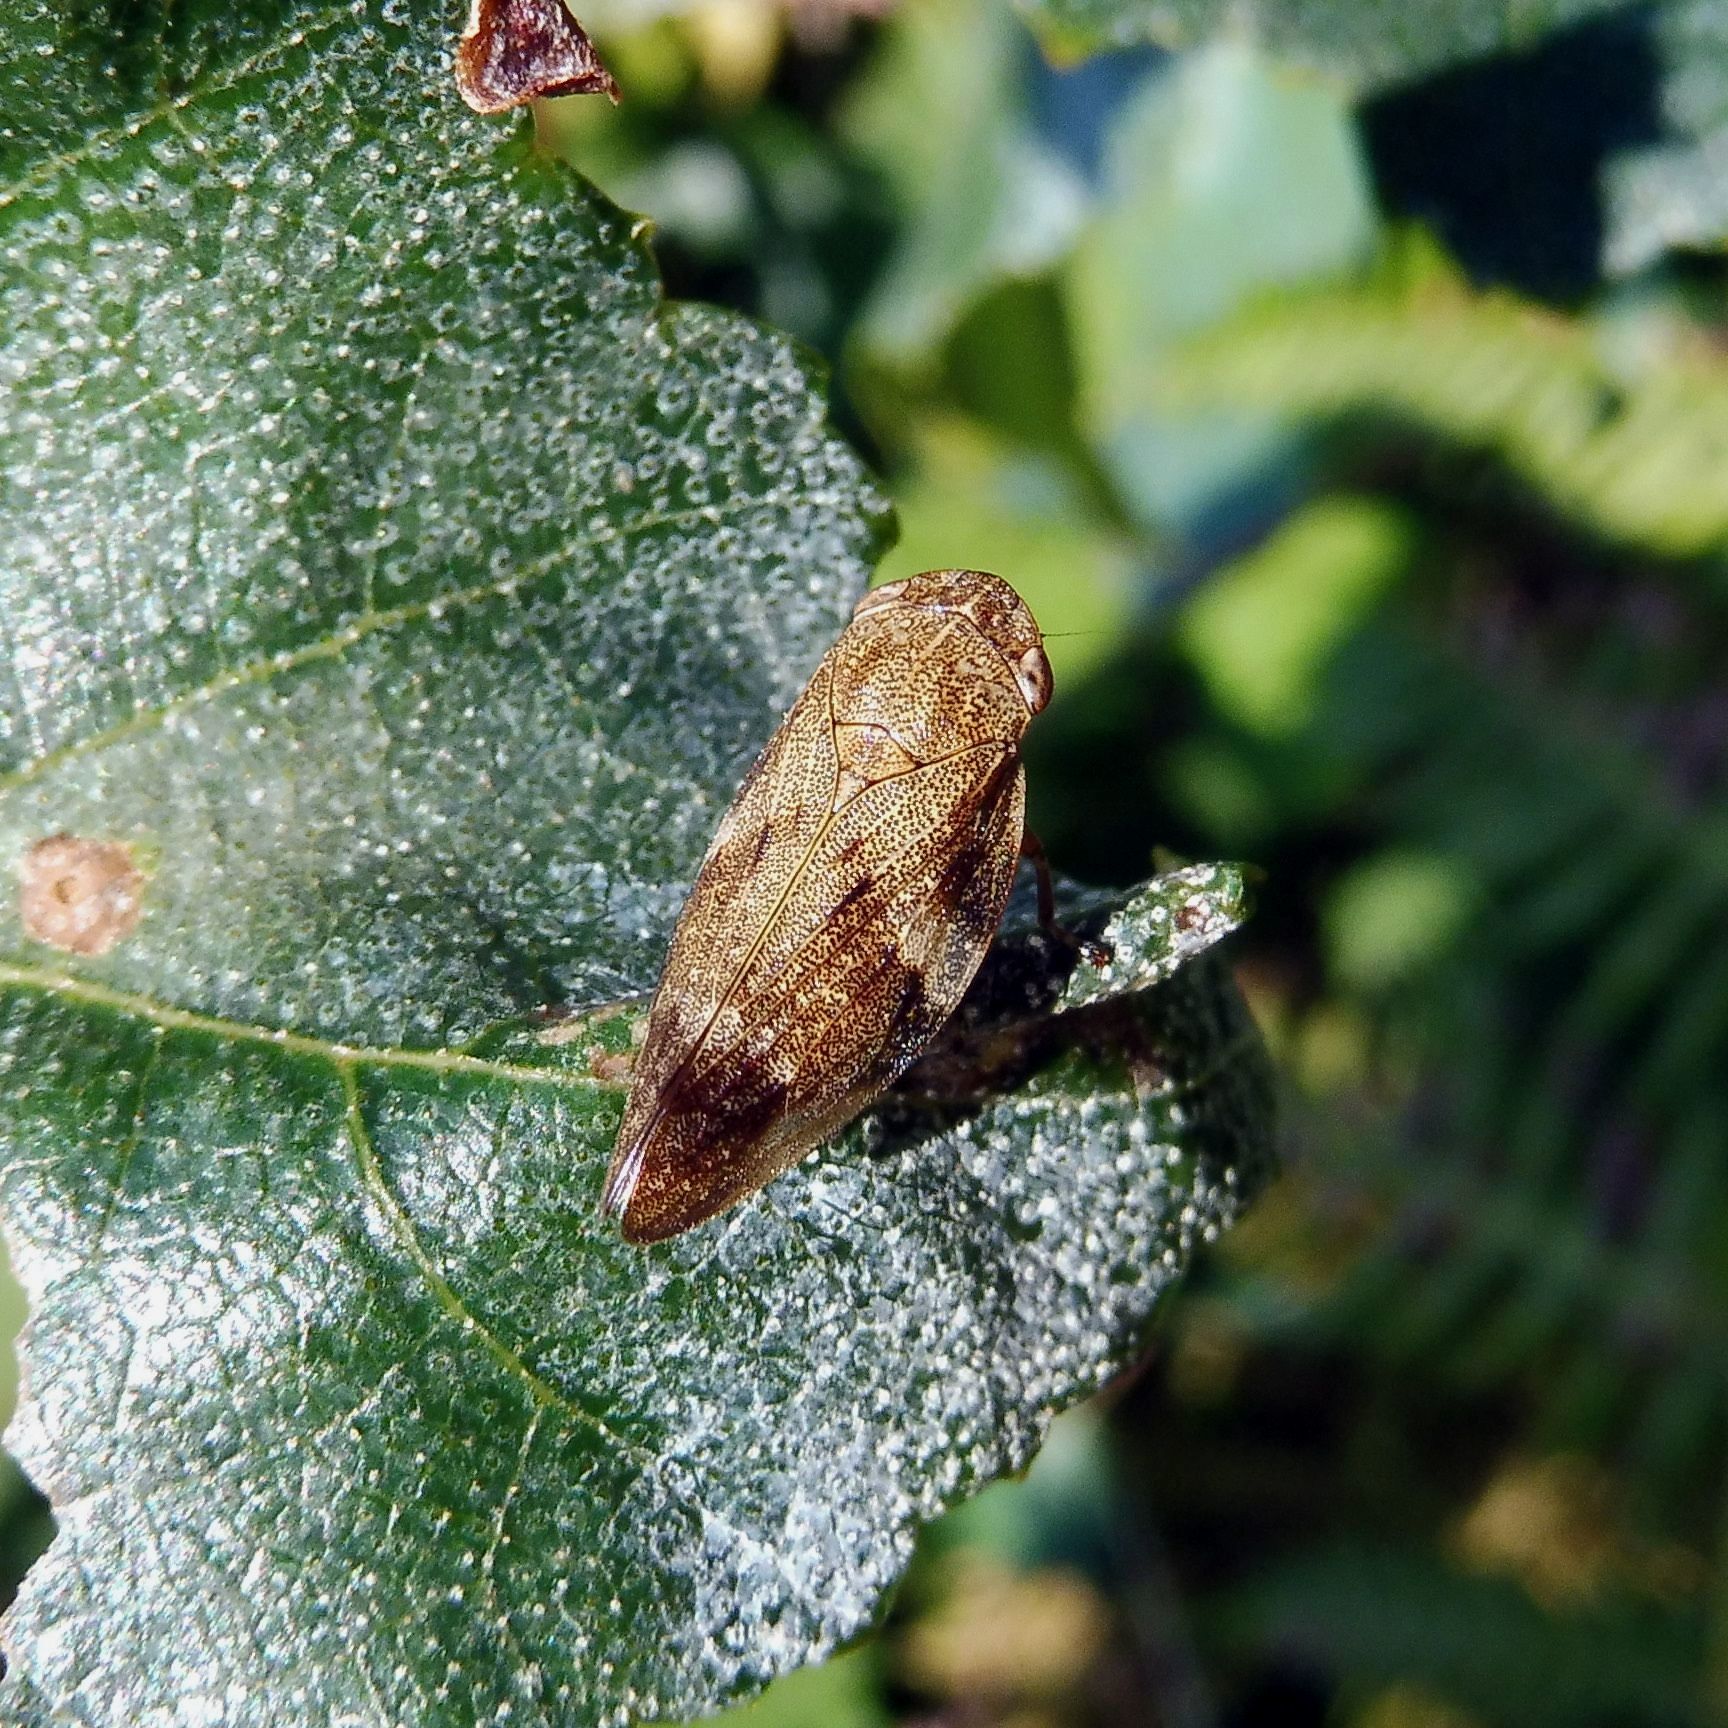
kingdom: Animalia
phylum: Arthropoda
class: Insecta
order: Hemiptera
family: Aphrophoridae
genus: Aphrophora
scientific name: Aphrophora alni
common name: European alder spittlebug
